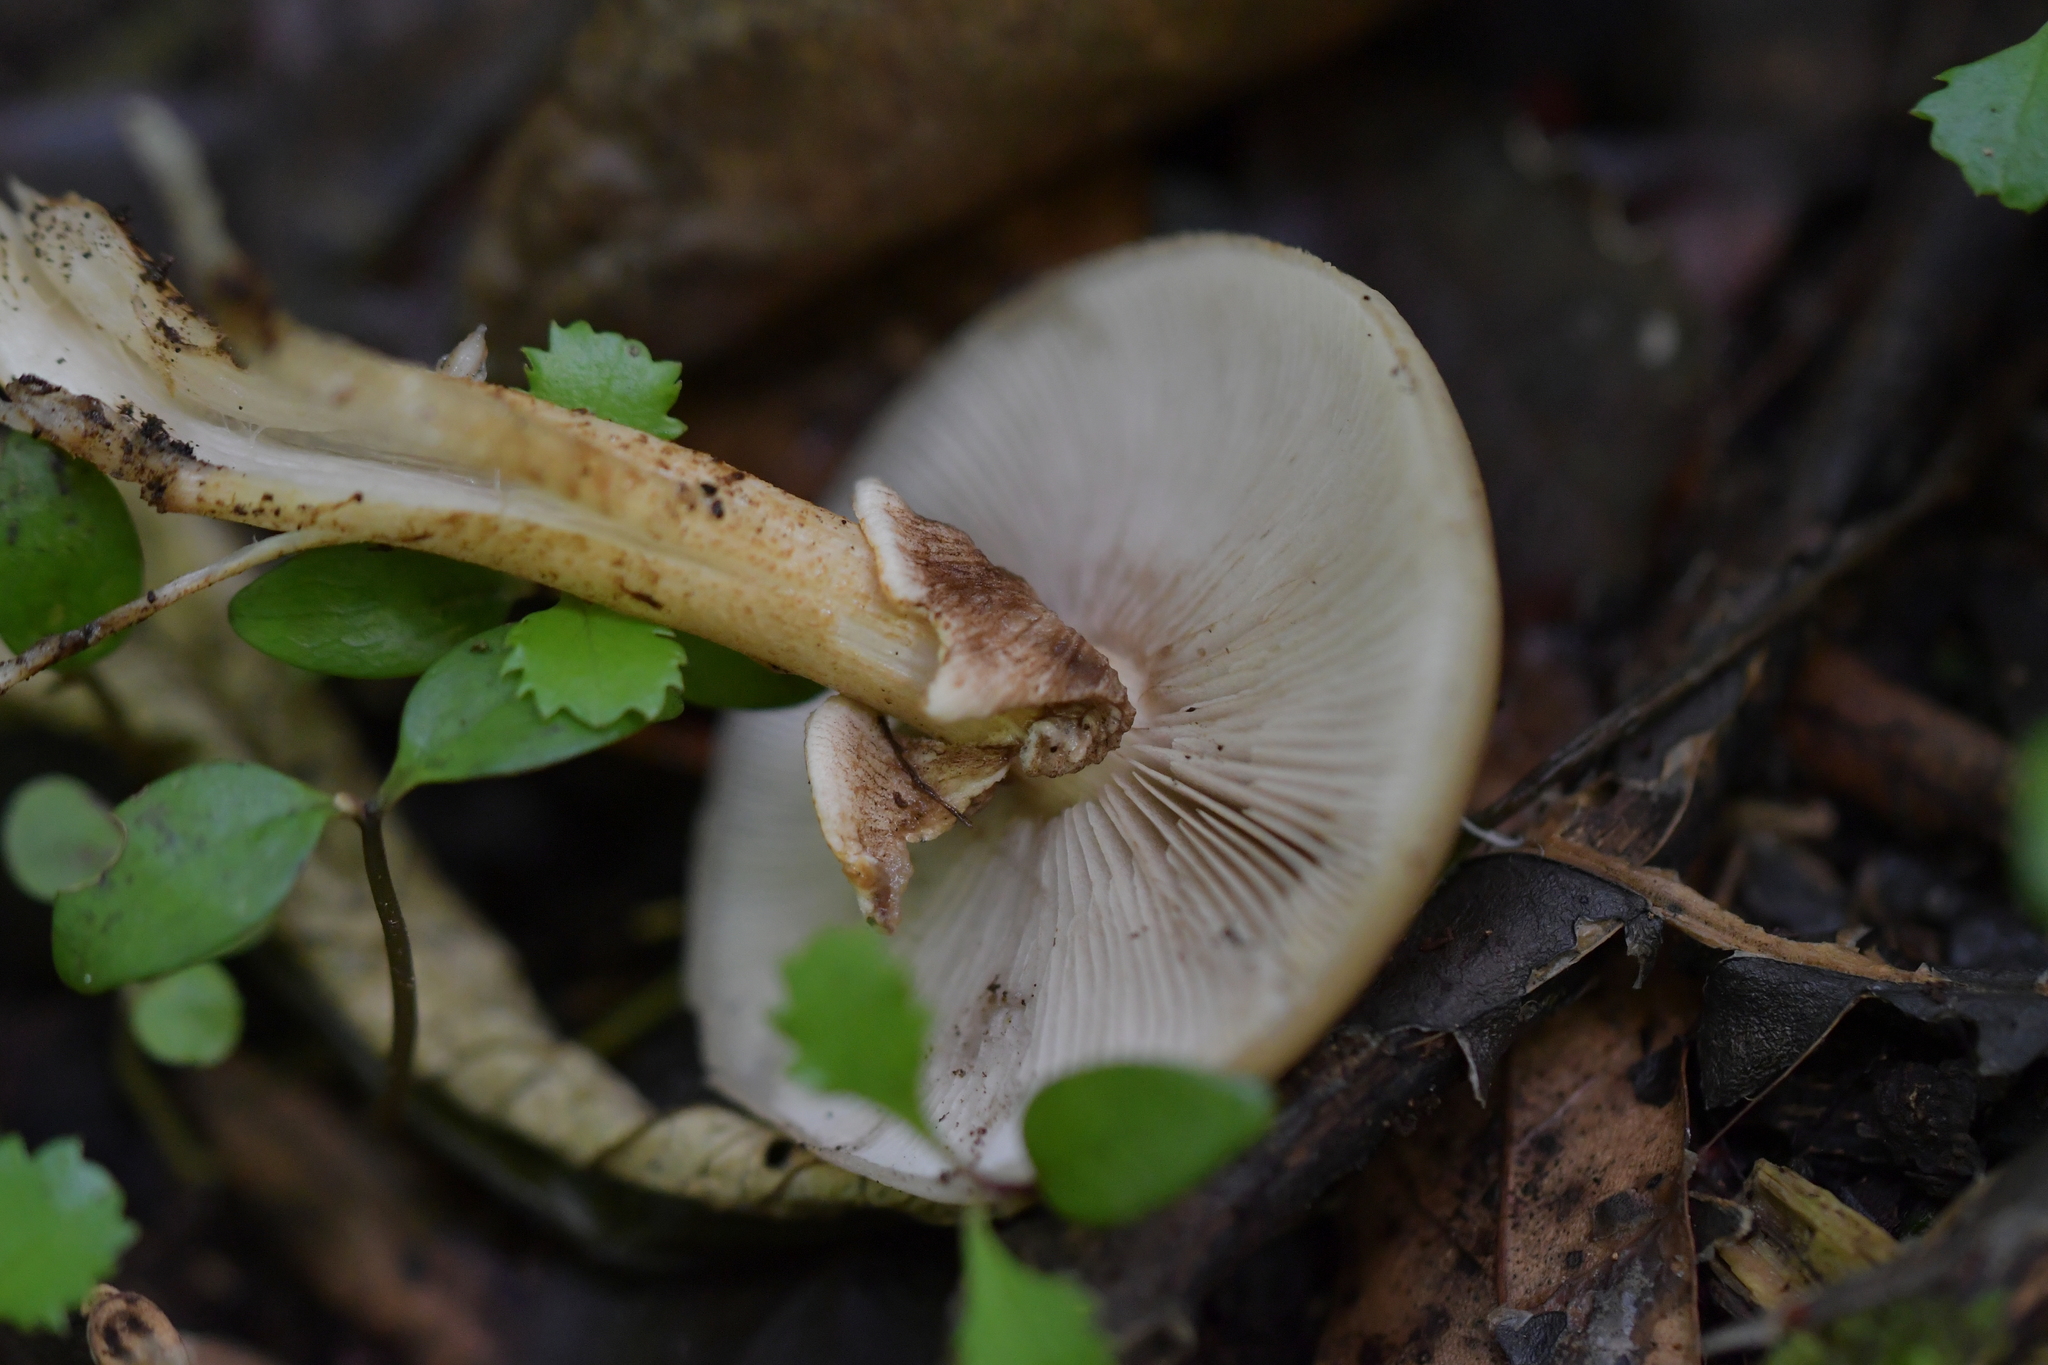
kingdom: Fungi
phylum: Basidiomycota
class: Agaricomycetes
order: Agaricales
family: Tubariaceae
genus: Cyclocybe
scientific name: Cyclocybe parasitica
